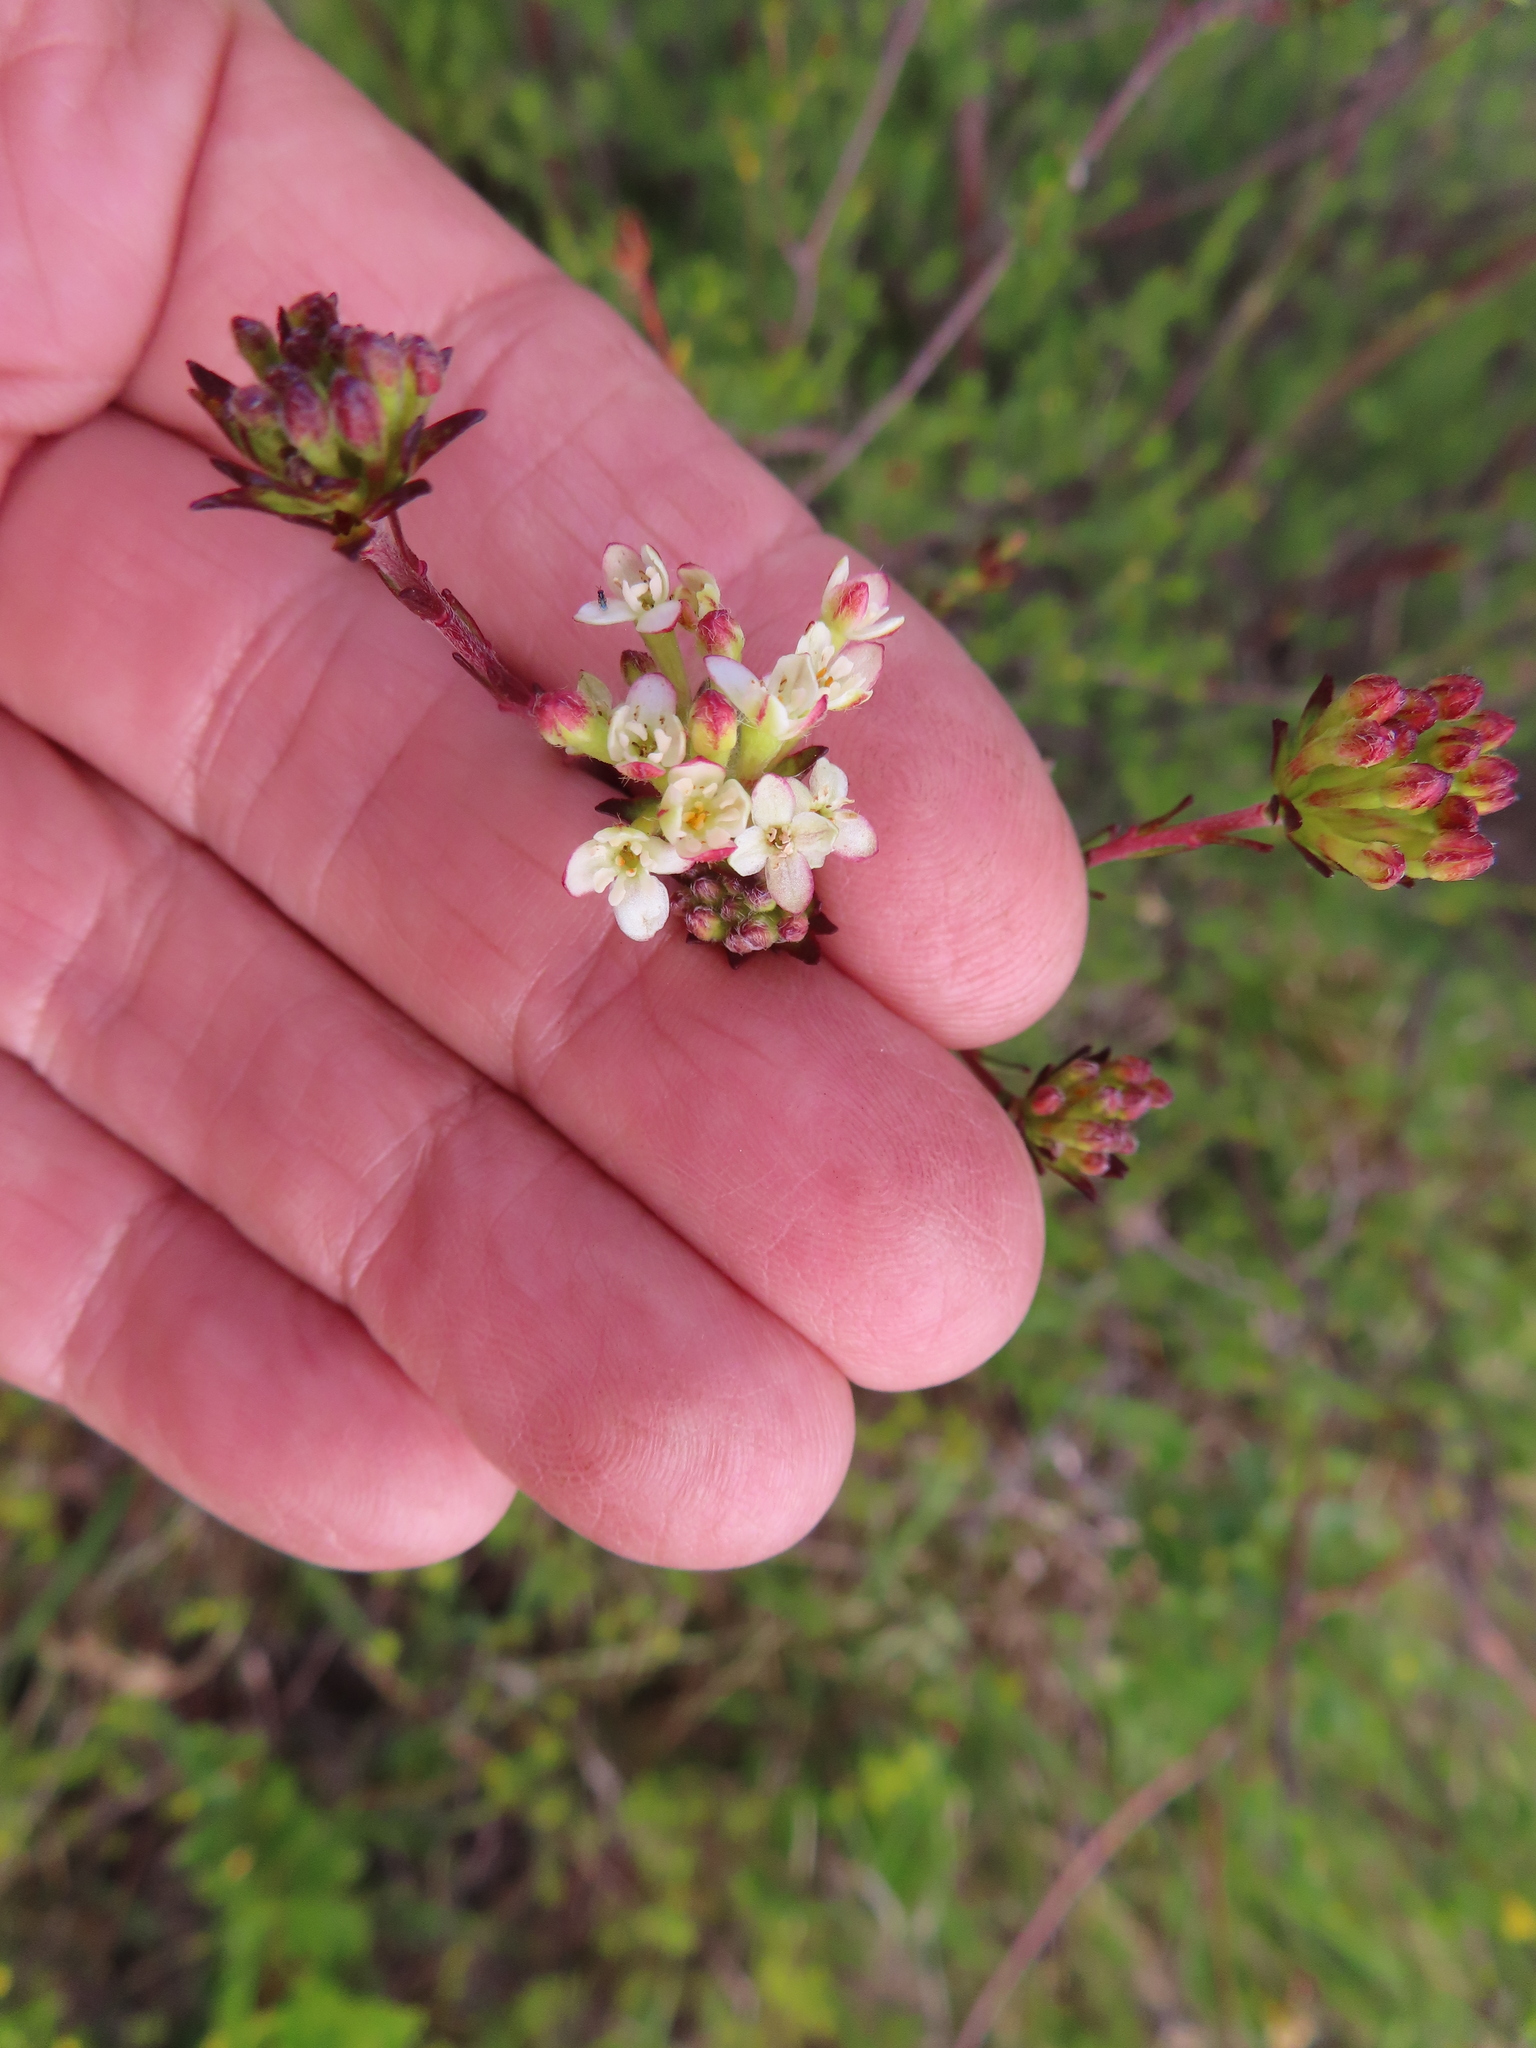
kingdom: Plantae
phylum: Tracheophyta
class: Magnoliopsida
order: Malvales
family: Thymelaeaceae
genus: Gnidia
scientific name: Gnidia squarrosa
